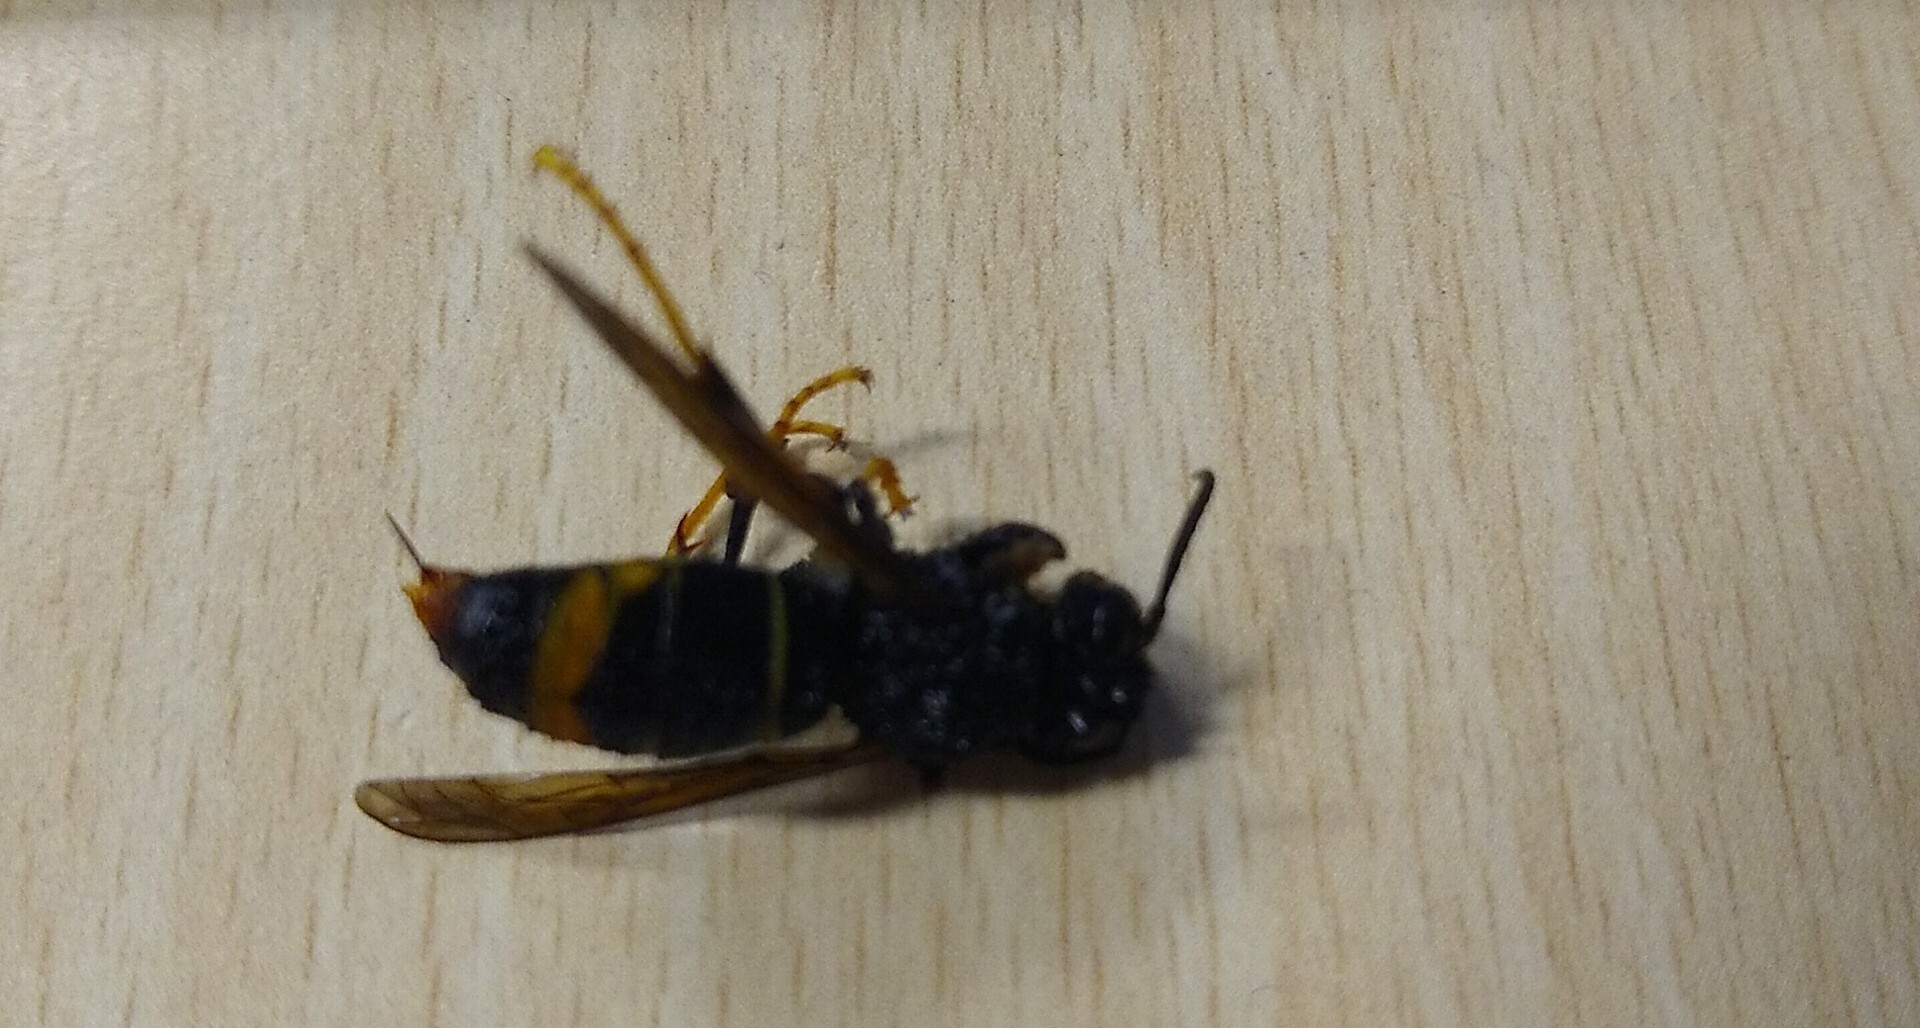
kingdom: Animalia
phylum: Arthropoda
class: Insecta
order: Hymenoptera
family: Vespidae
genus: Vespa
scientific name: Vespa velutina
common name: Asian hornet
